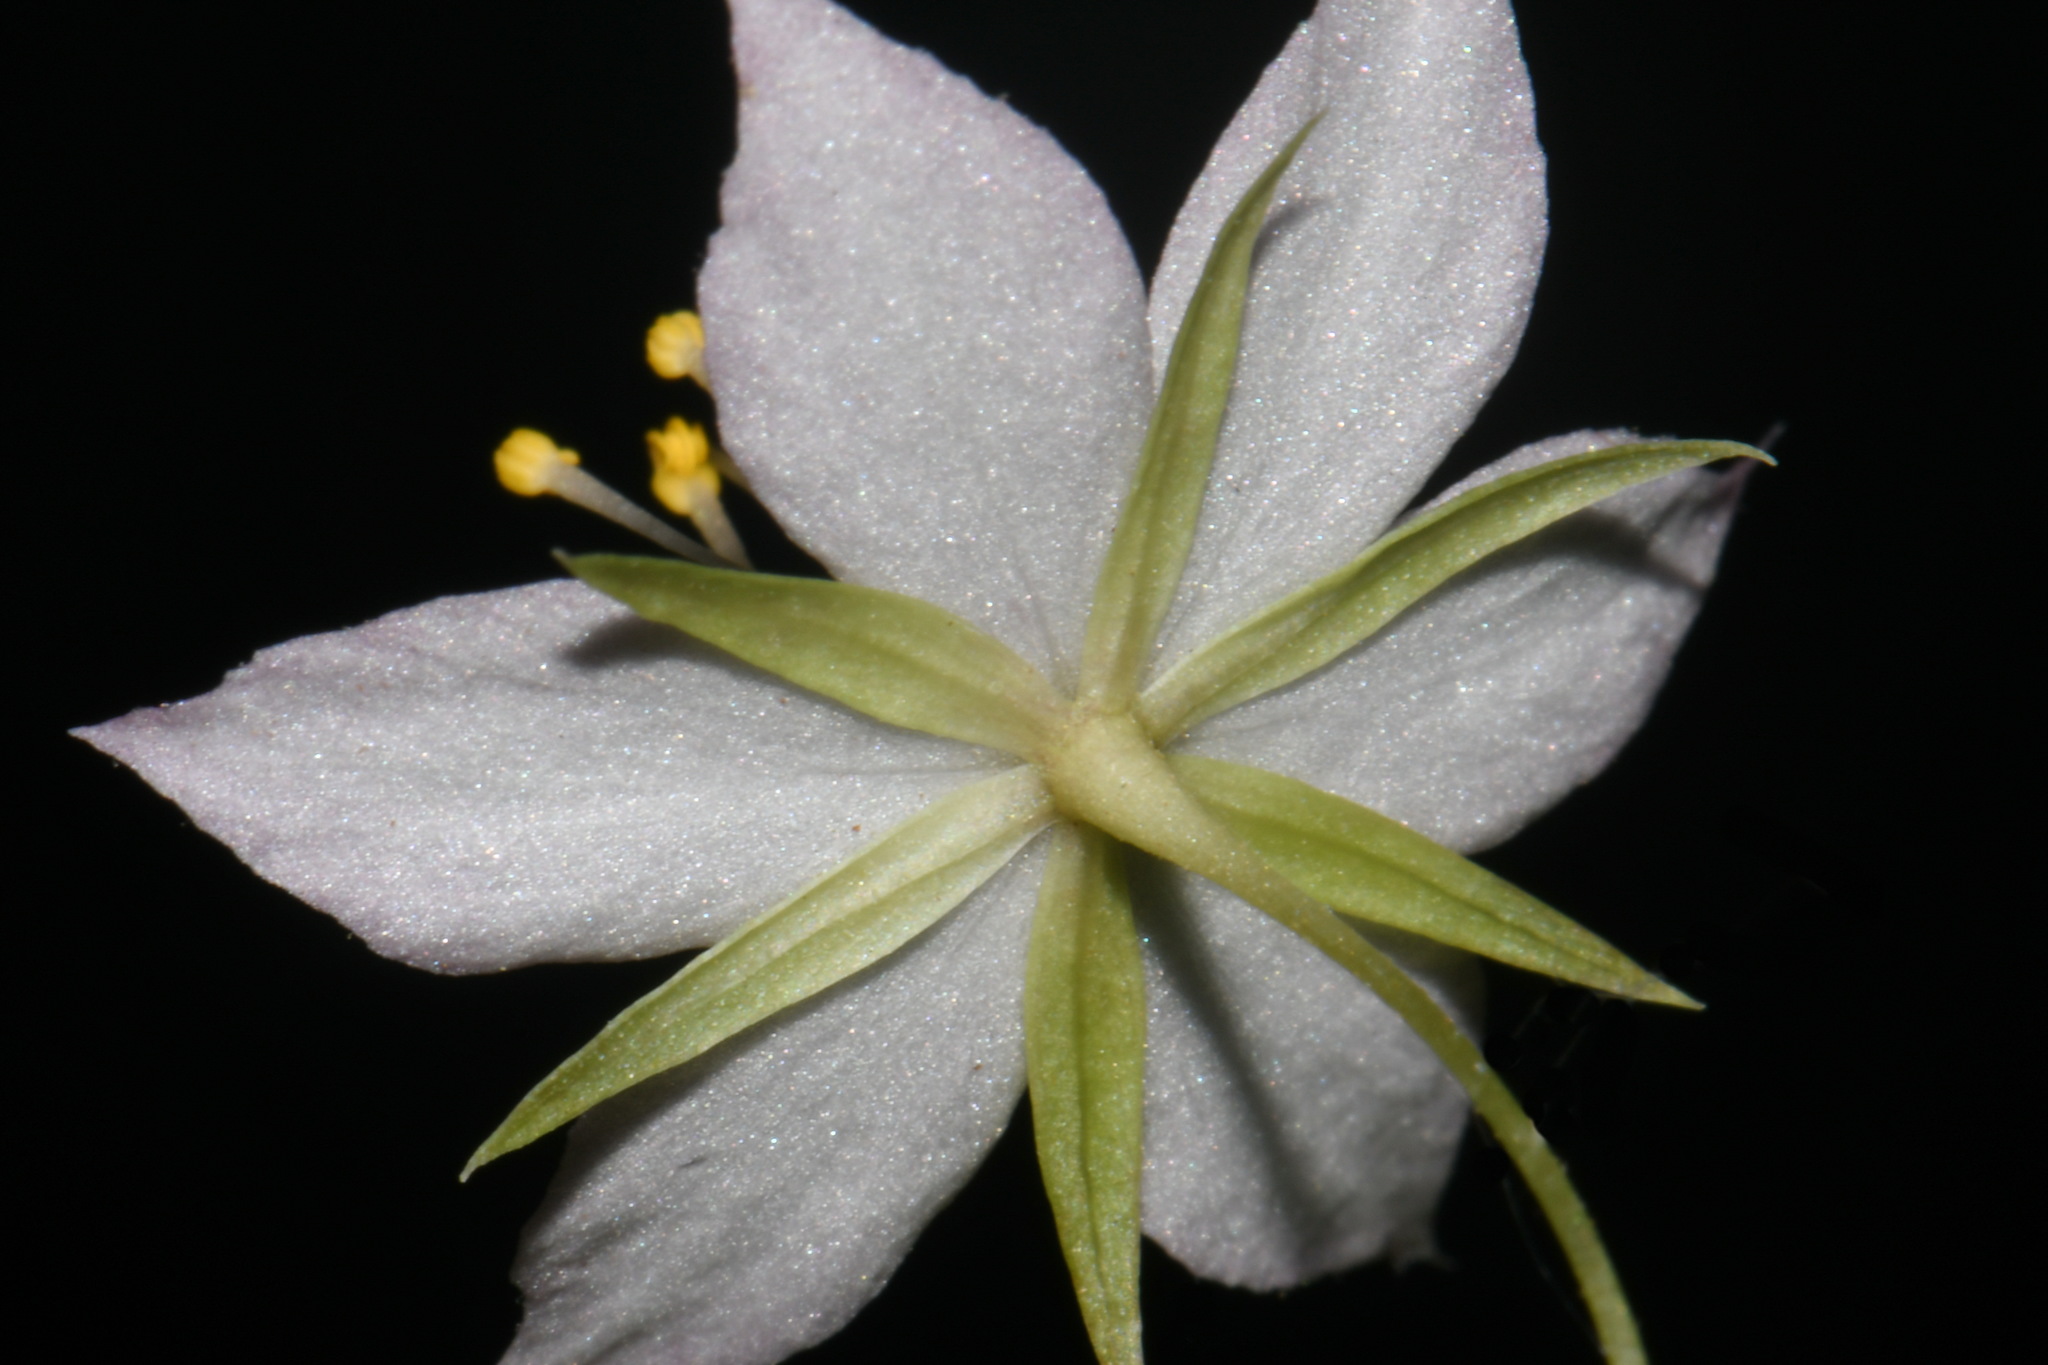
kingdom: Plantae
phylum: Tracheophyta
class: Magnoliopsida
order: Ericales
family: Primulaceae
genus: Lysimachia
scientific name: Lysimachia latifolia
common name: Pacific starflower
